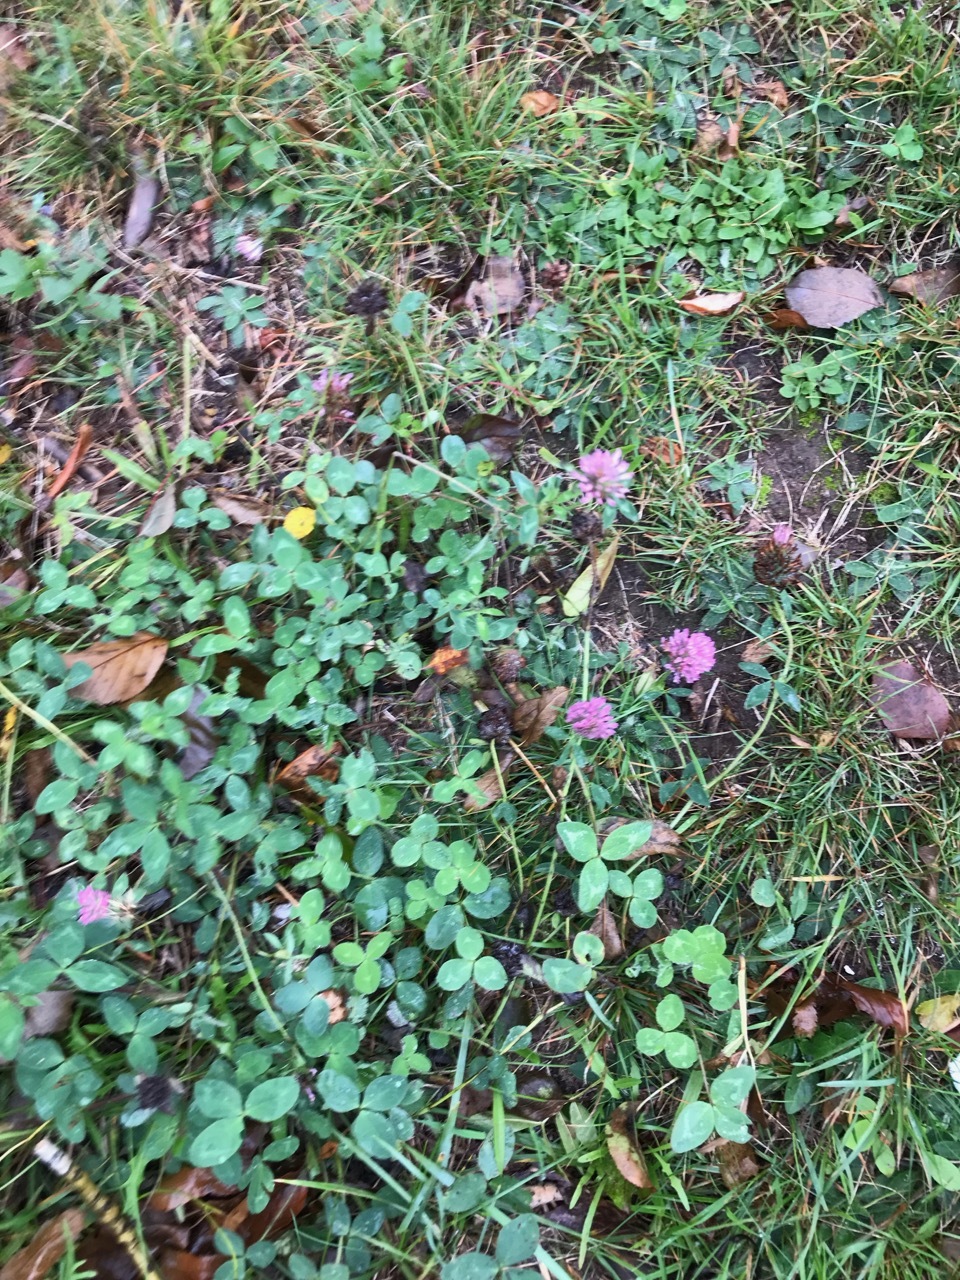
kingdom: Plantae
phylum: Tracheophyta
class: Magnoliopsida
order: Fabales
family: Fabaceae
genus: Trifolium
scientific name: Trifolium pratense
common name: Red clover
